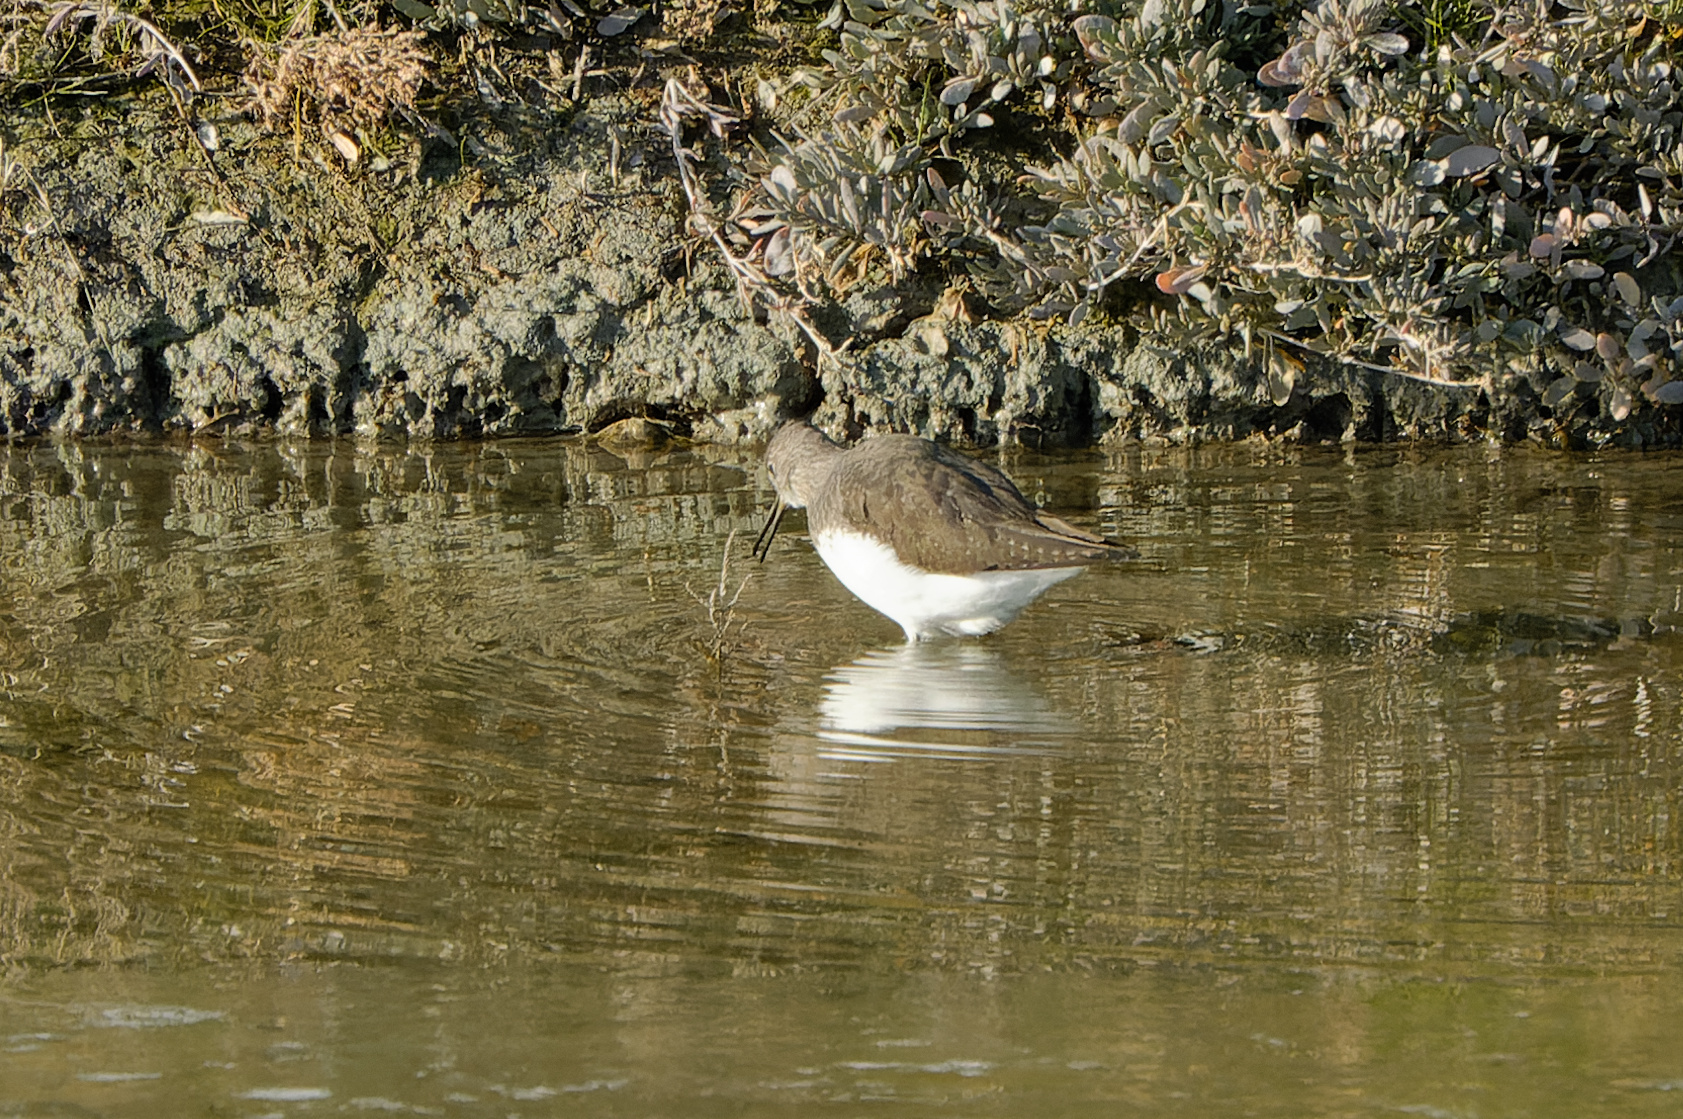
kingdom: Animalia
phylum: Chordata
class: Aves
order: Charadriiformes
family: Scolopacidae
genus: Tringa
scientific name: Tringa ochropus
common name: Green sandpiper
